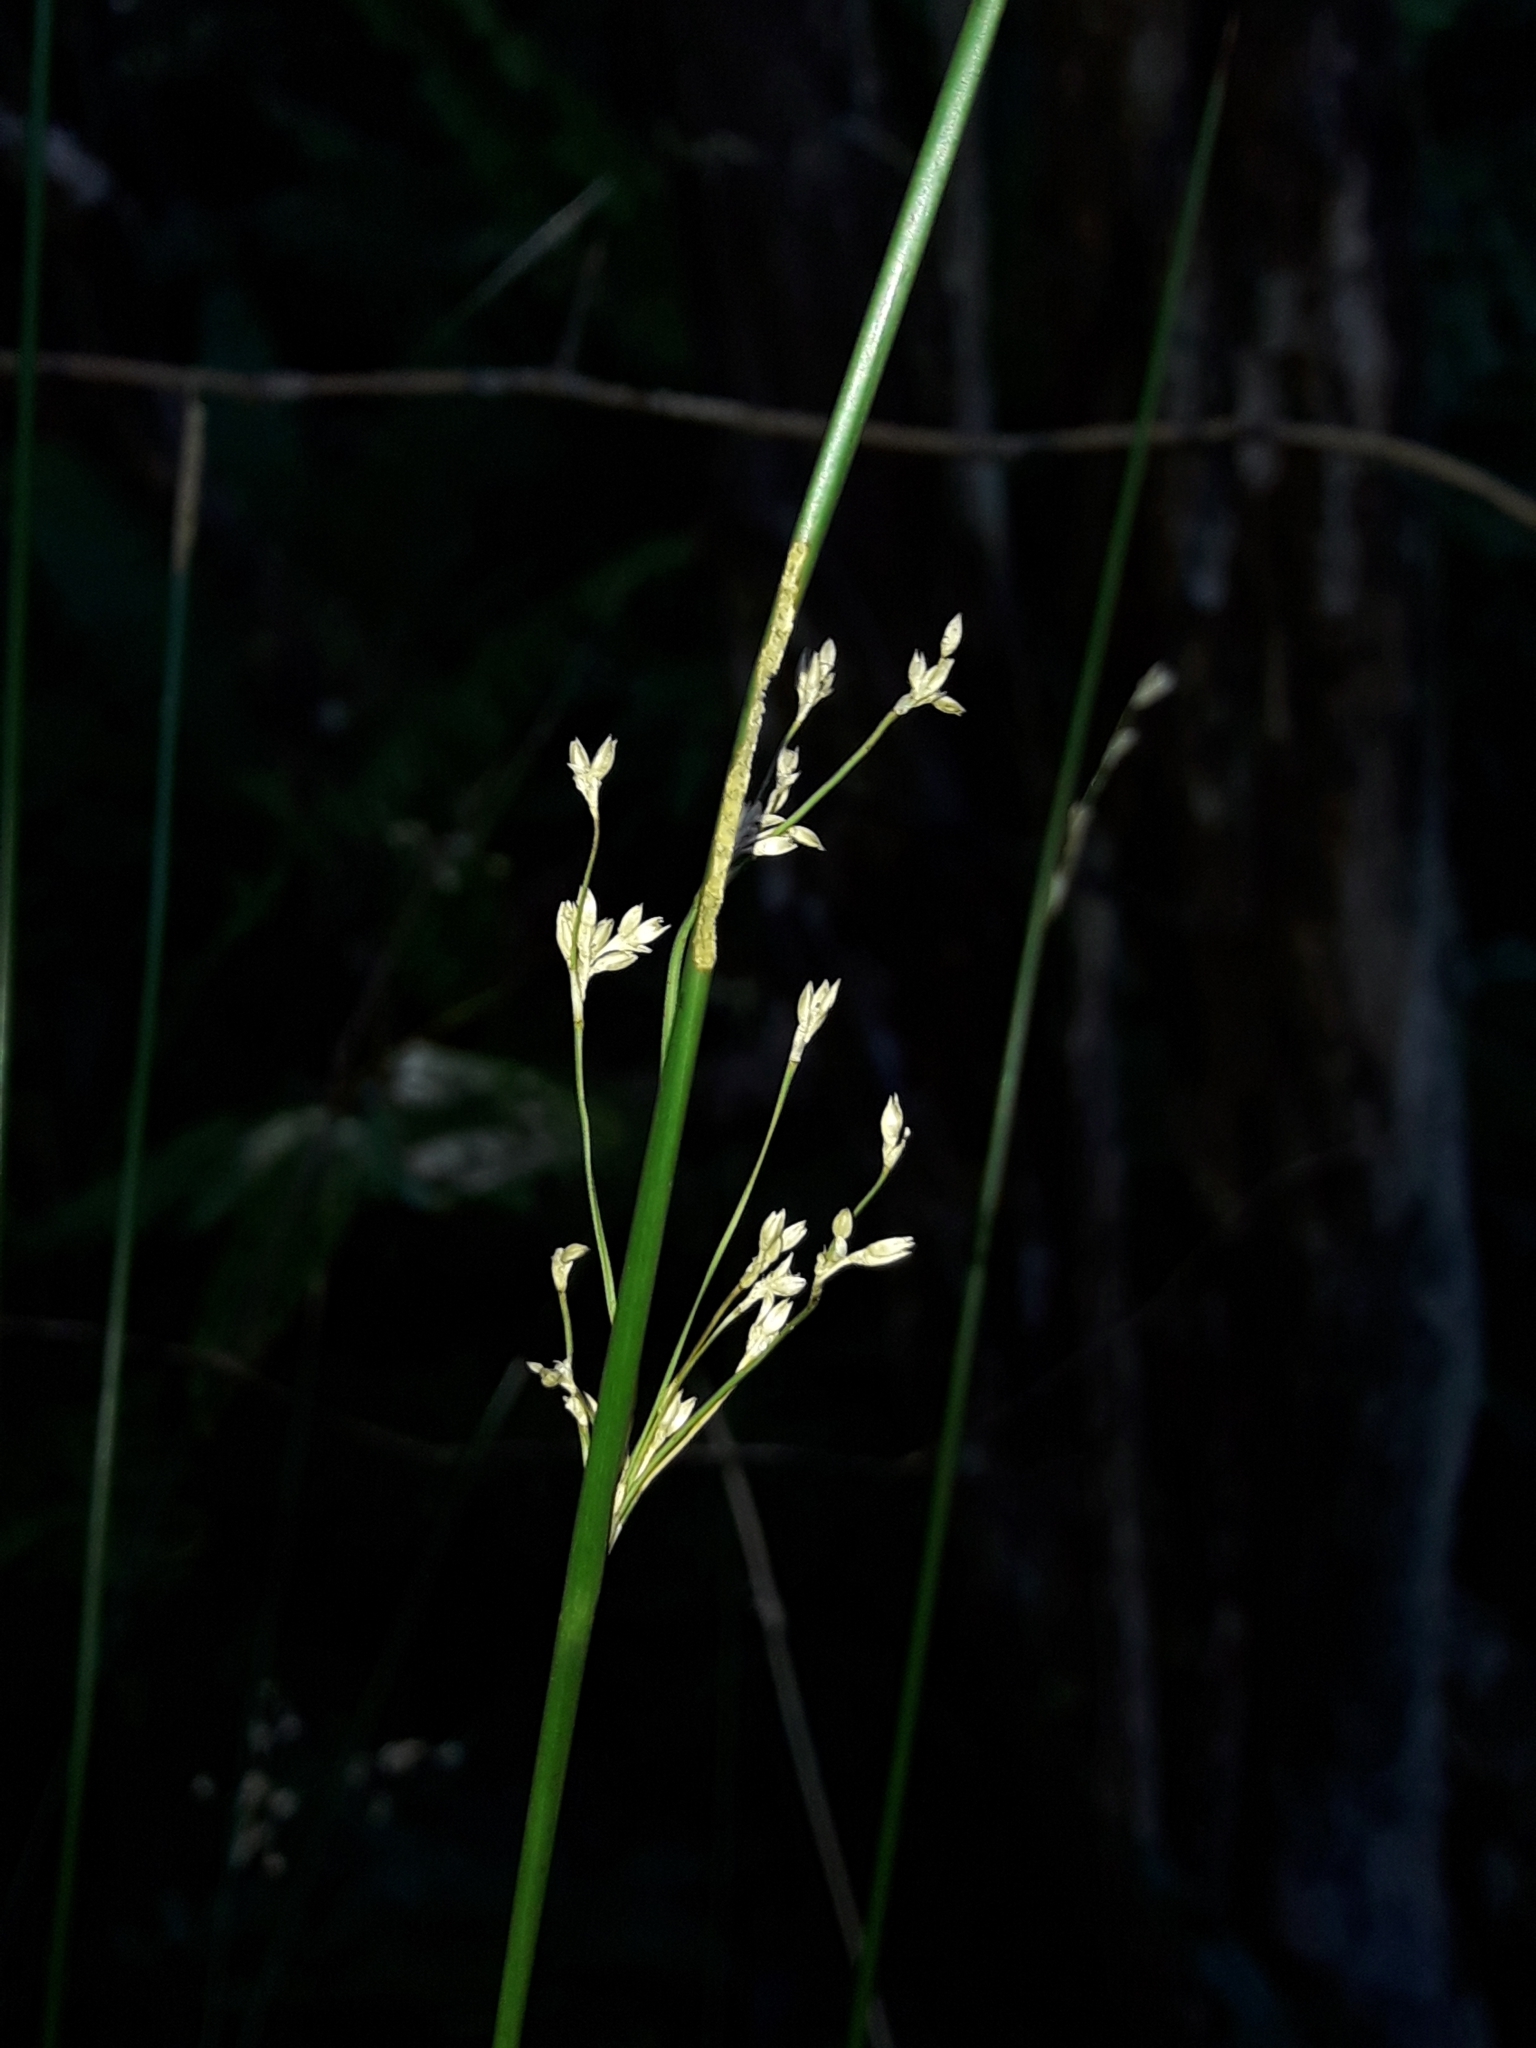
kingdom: Plantae
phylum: Tracheophyta
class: Liliopsida
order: Poales
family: Juncaceae
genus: Juncus
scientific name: Juncus edgariae
